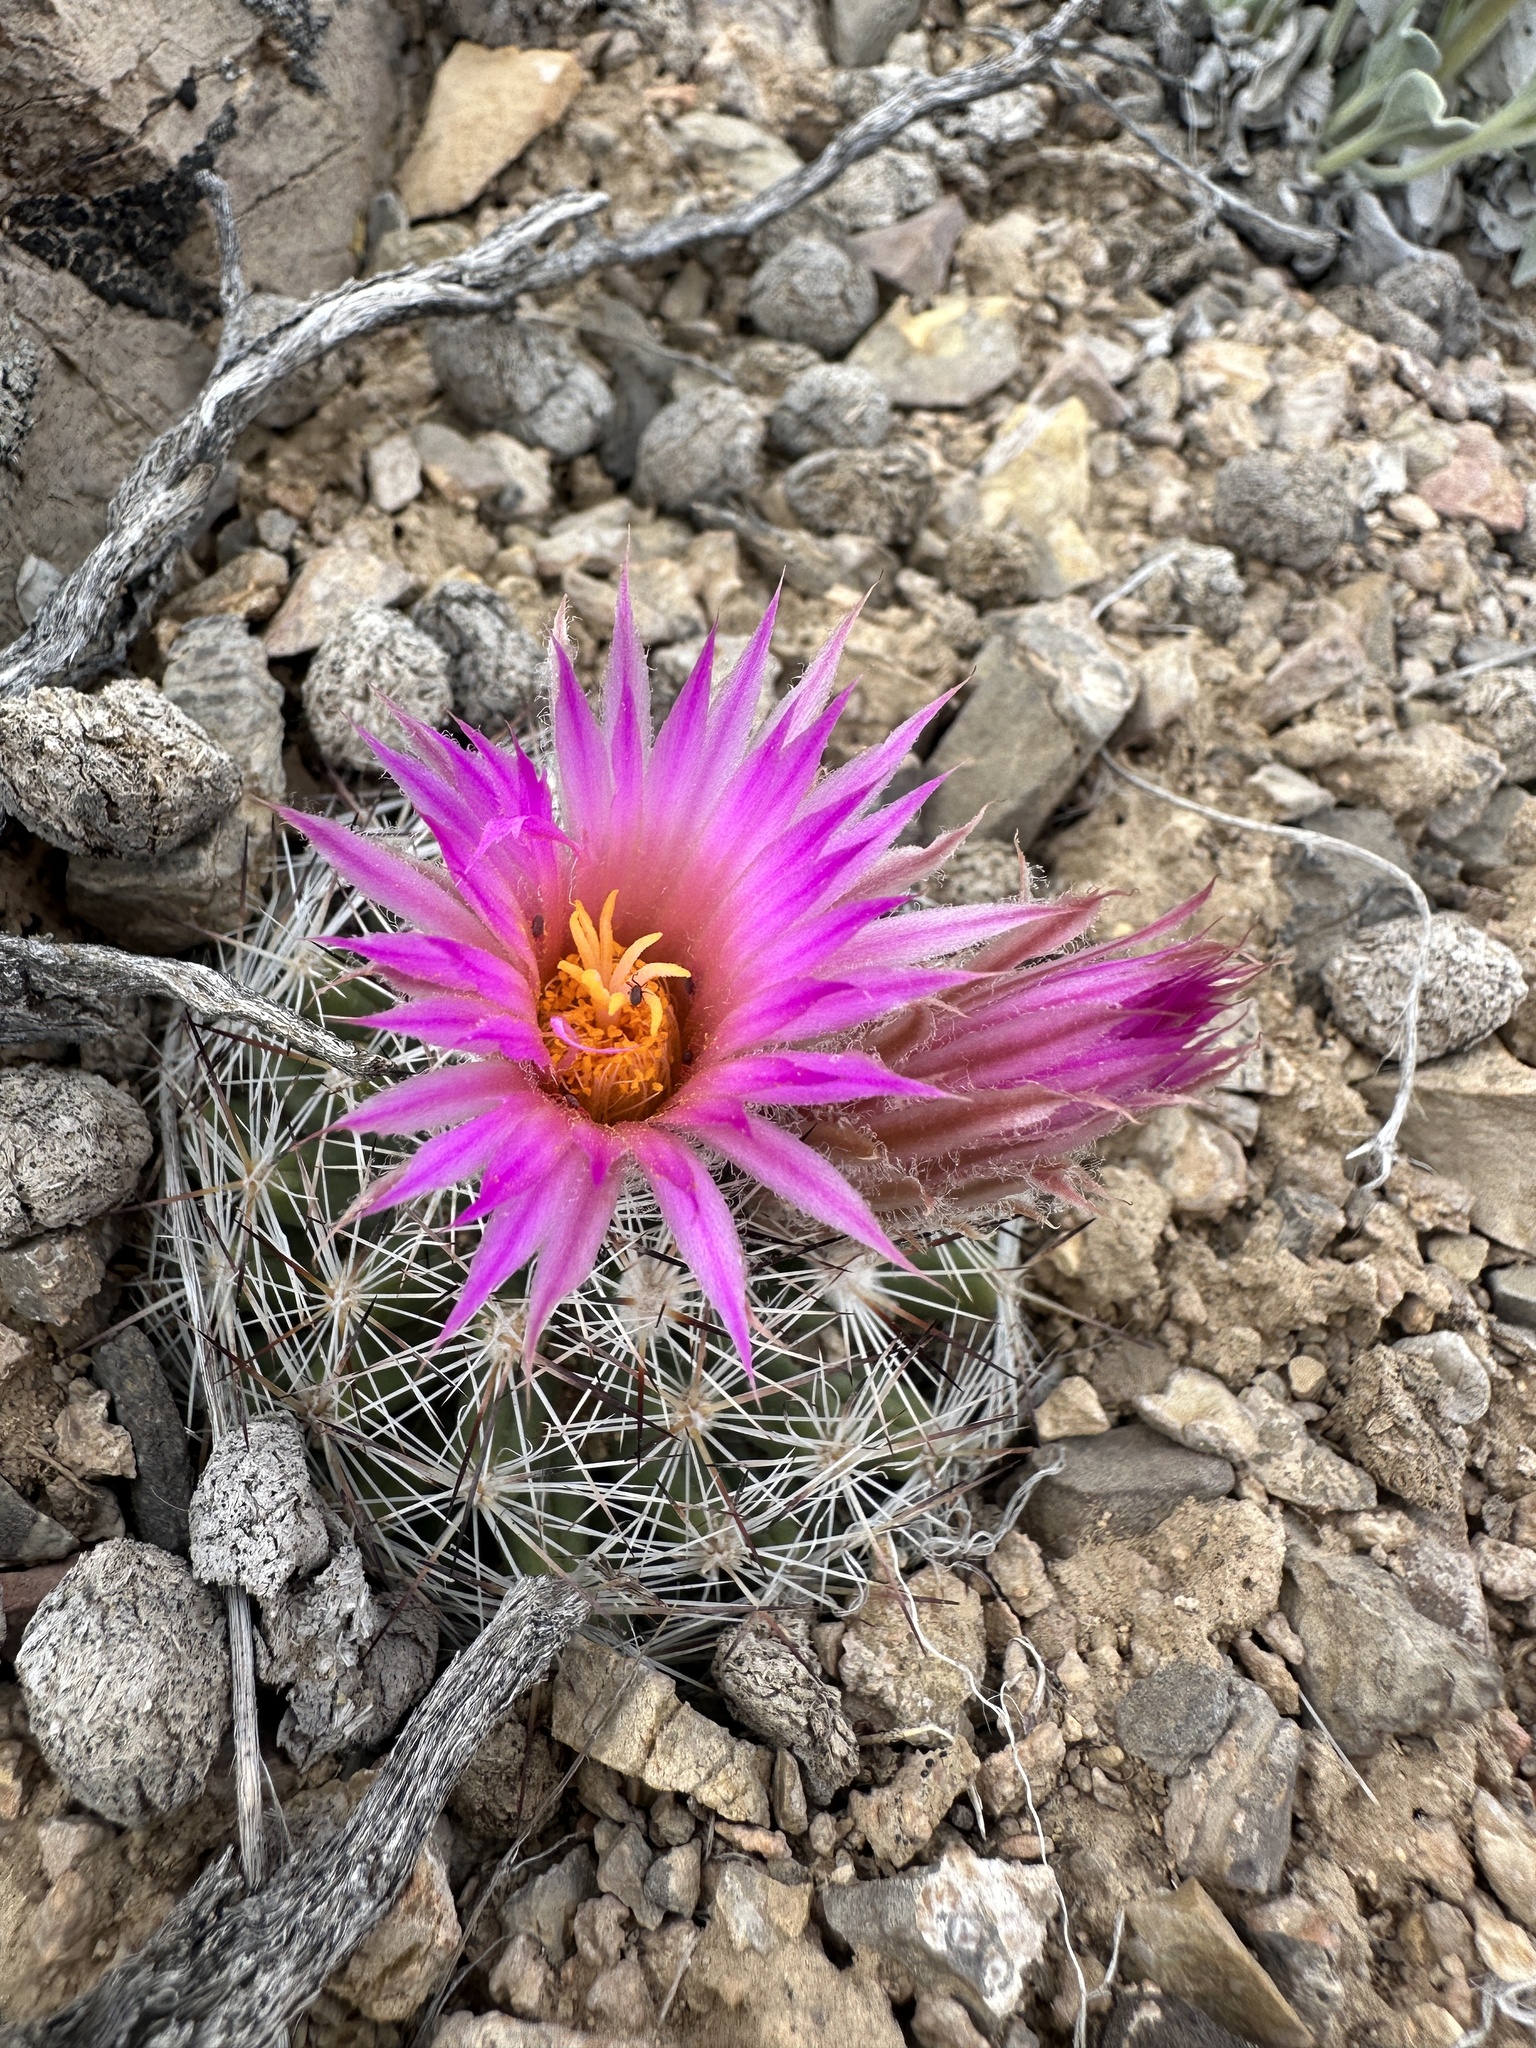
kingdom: Plantae
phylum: Tracheophyta
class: Magnoliopsida
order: Caryophyllales
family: Cactaceae
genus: Pelecyphora
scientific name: Pelecyphora vivipara
